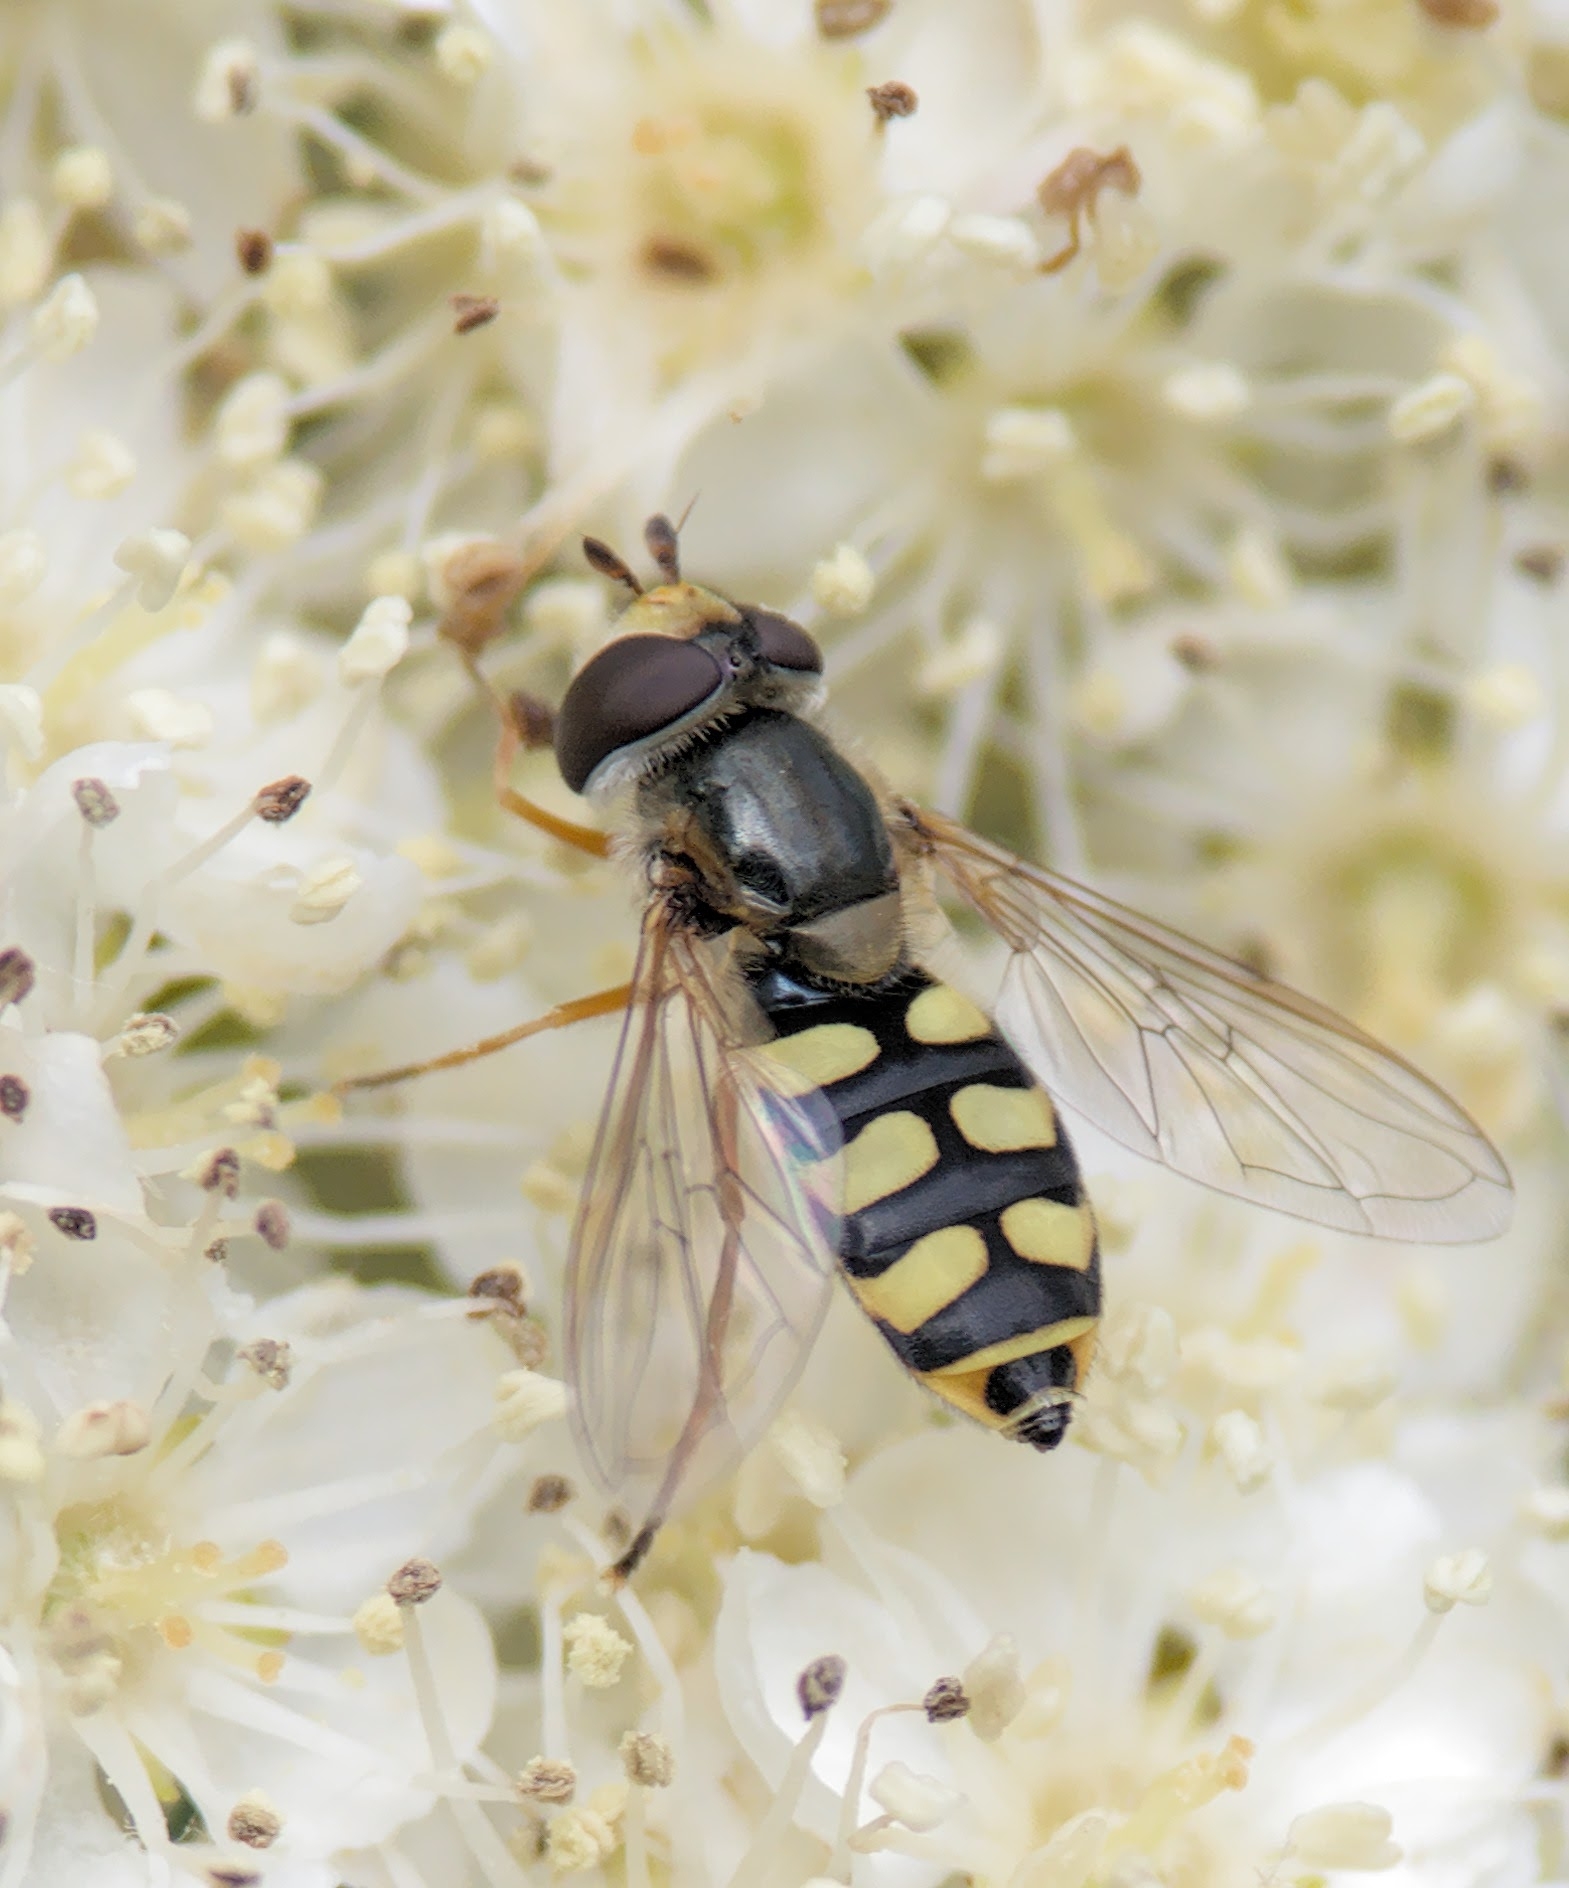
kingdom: Animalia
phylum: Arthropoda
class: Insecta
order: Diptera
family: Syrphidae
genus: Eupeodes
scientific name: Eupeodes corollae
